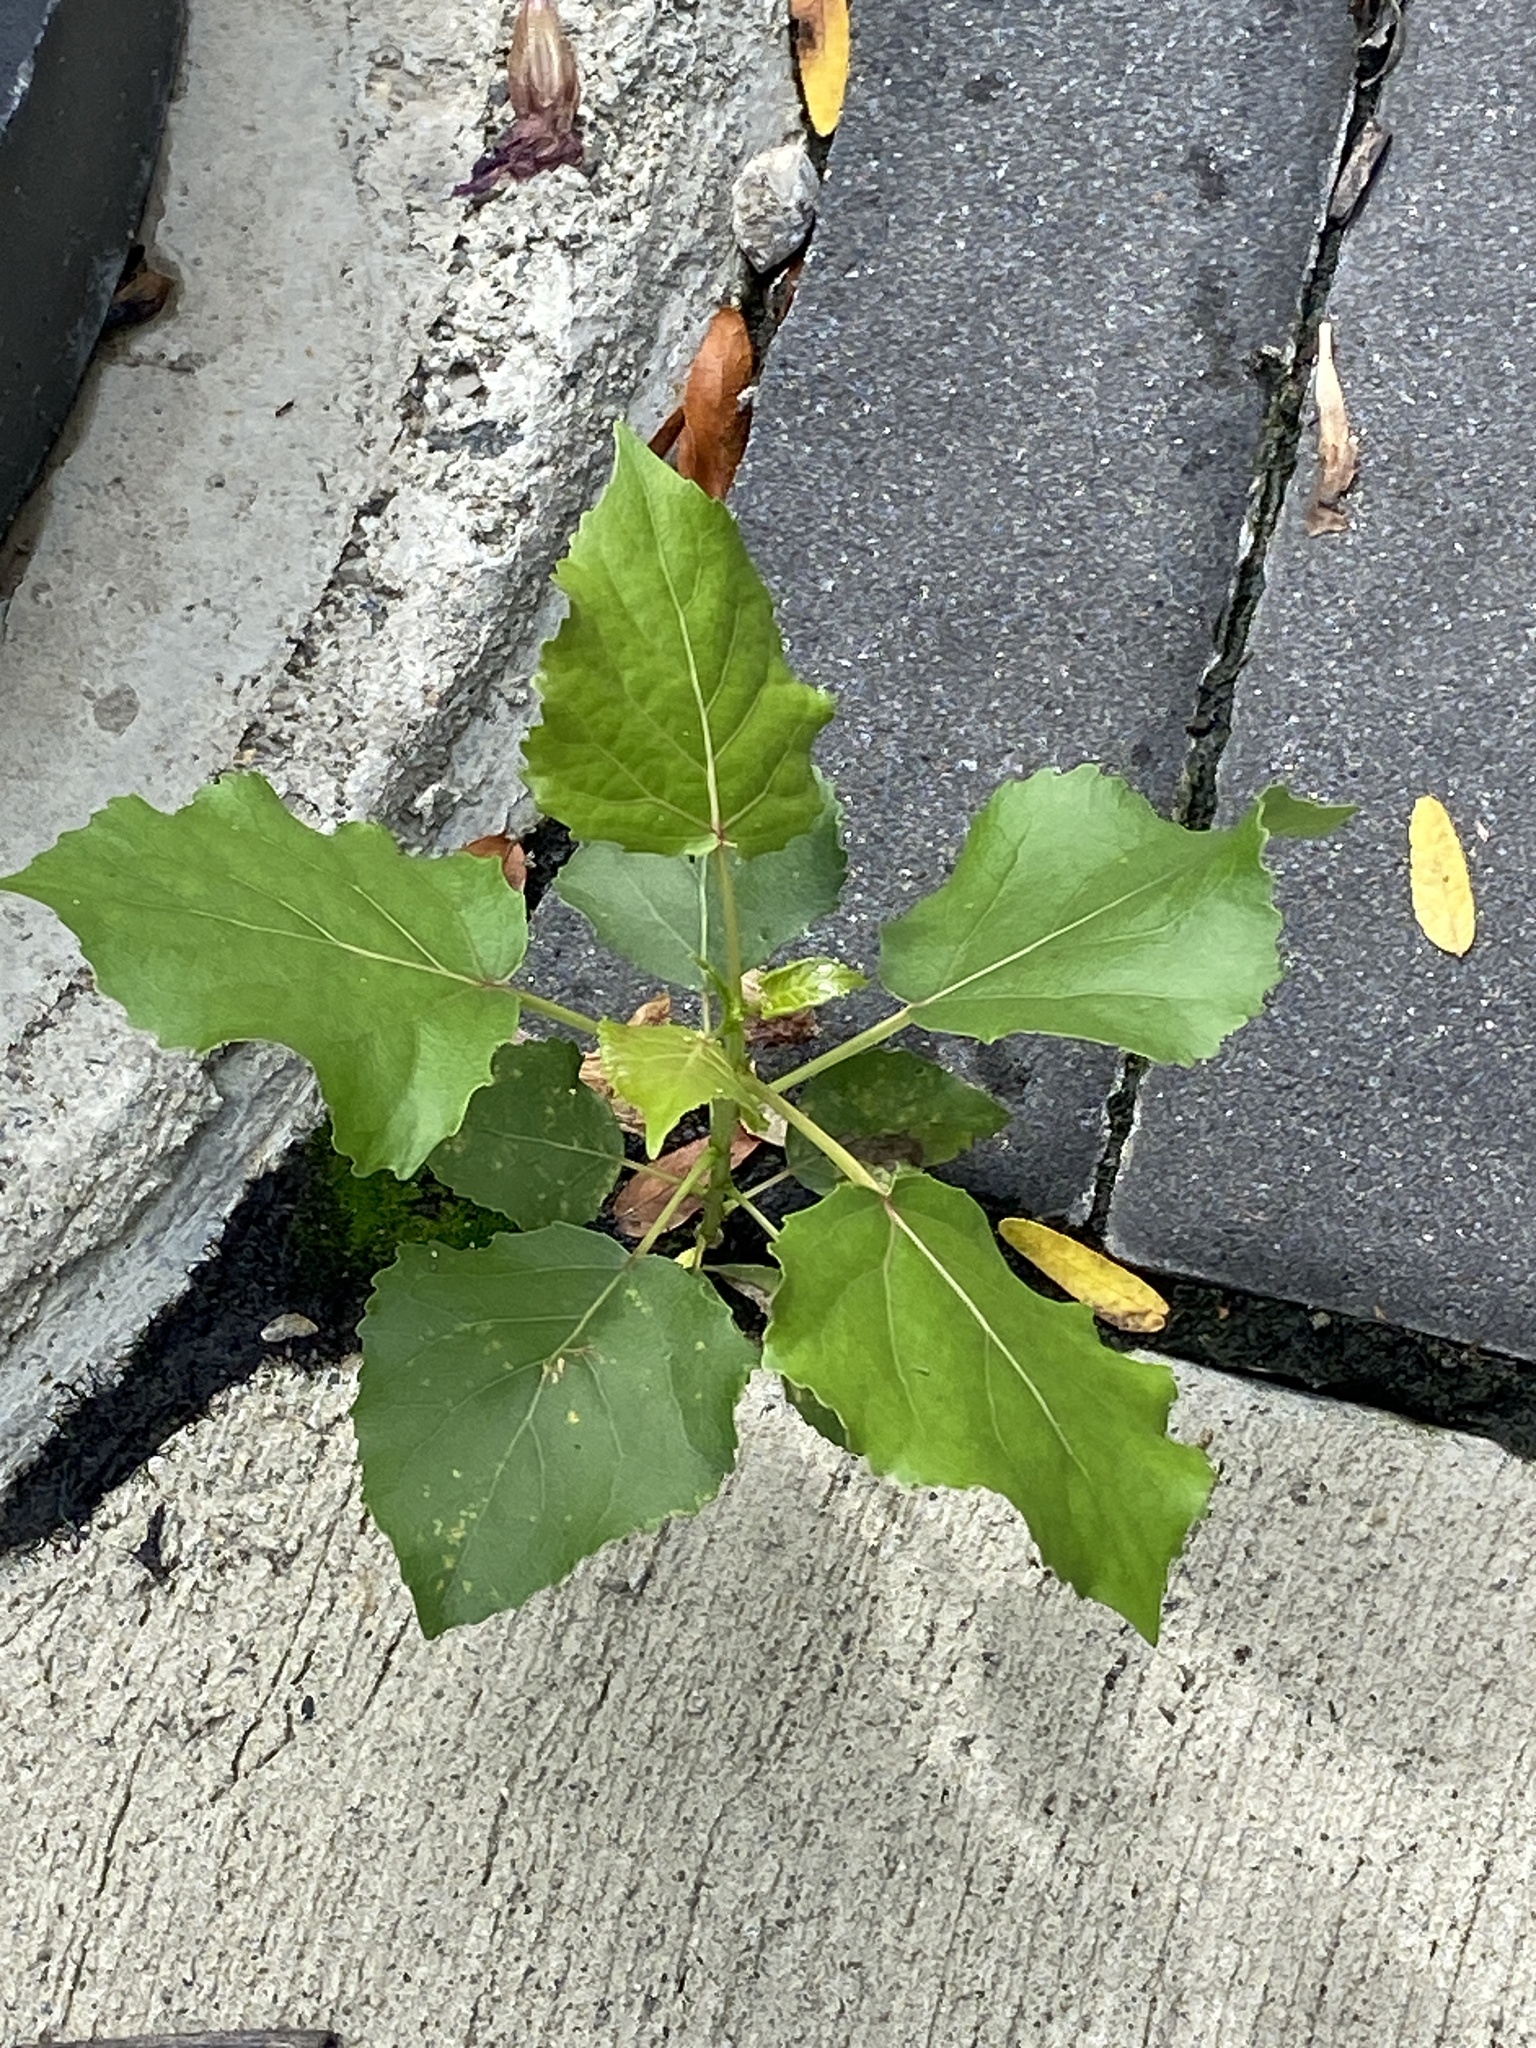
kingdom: Plantae
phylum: Tracheophyta
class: Magnoliopsida
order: Malpighiales
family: Salicaceae
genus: Populus
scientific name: Populus deltoides
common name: Eastern cottonwood
